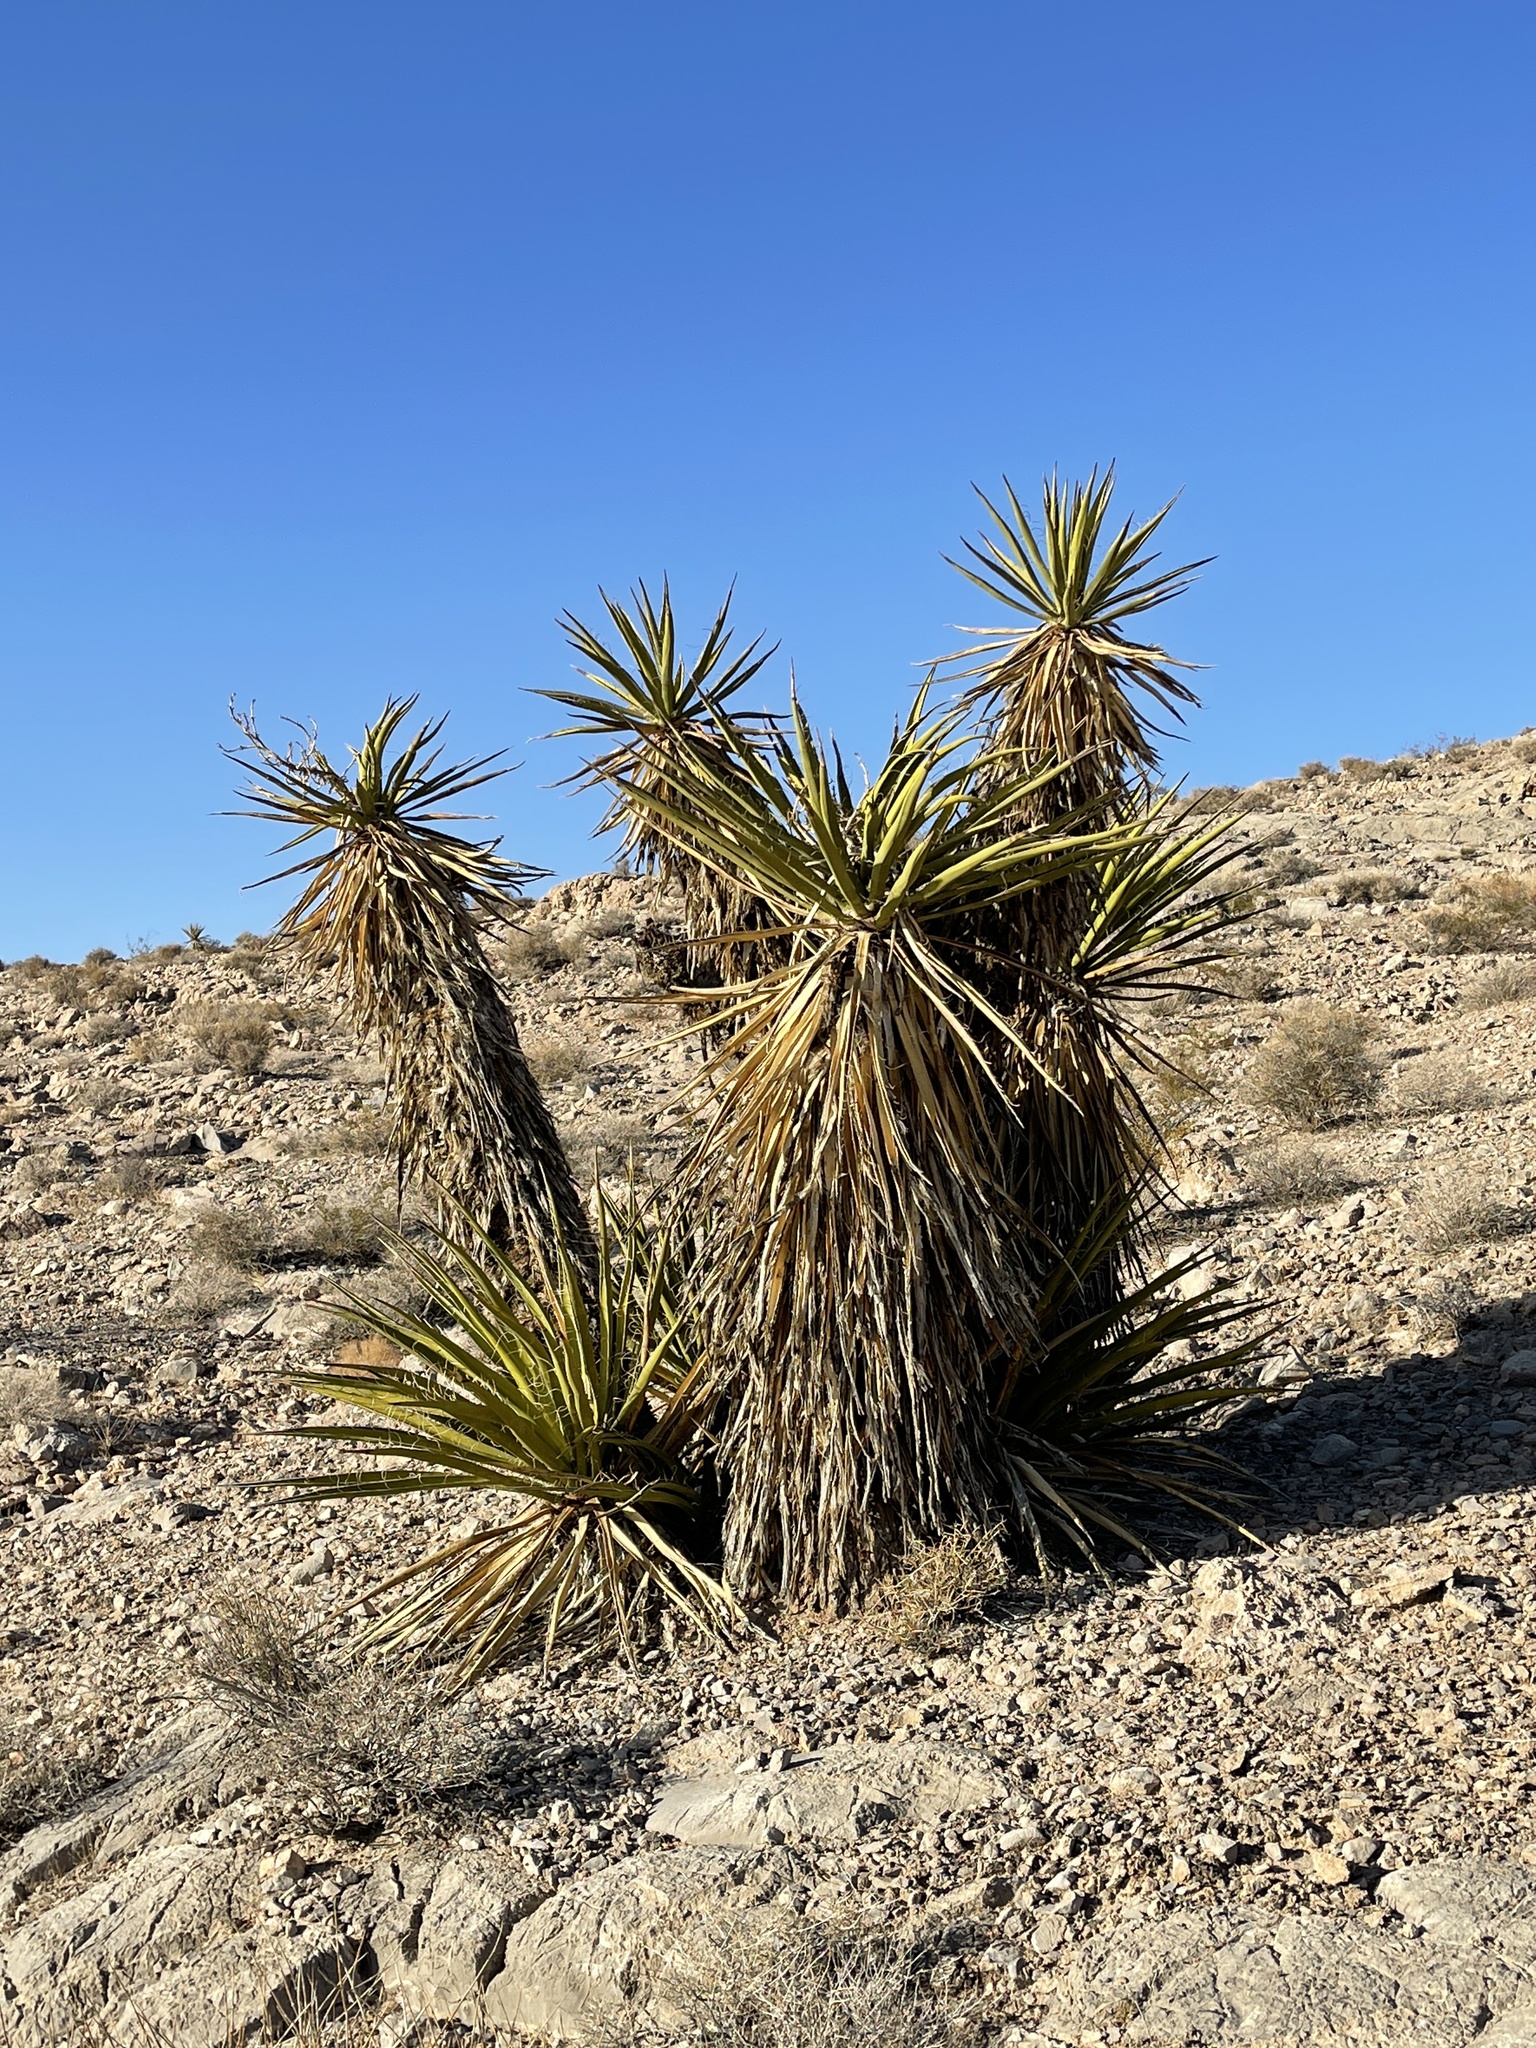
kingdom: Plantae
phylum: Tracheophyta
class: Liliopsida
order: Asparagales
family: Asparagaceae
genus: Yucca
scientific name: Yucca schidigera
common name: Mojave yucca
